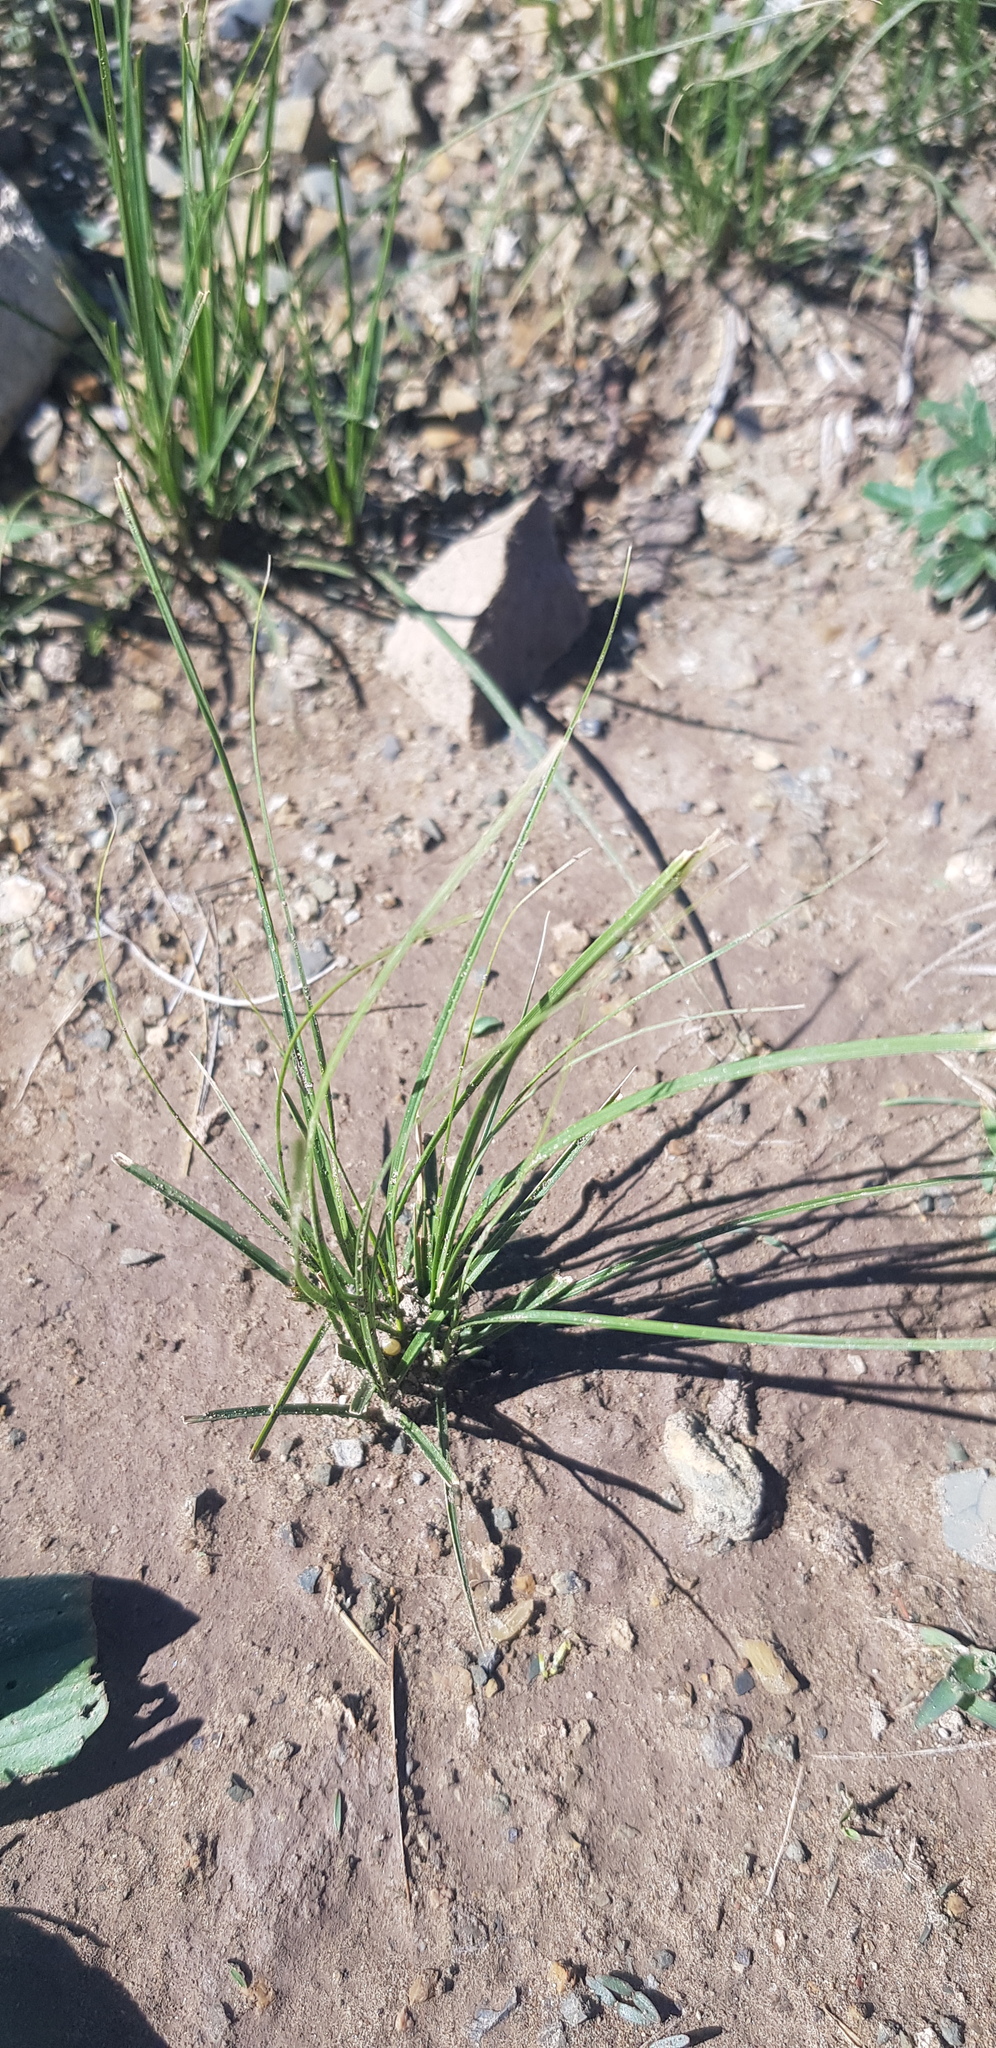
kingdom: Plantae
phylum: Tracheophyta
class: Liliopsida
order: Poales
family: Cyperaceae
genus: Carex
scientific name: Carex duriuscula
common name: Involute-leaved sedge
